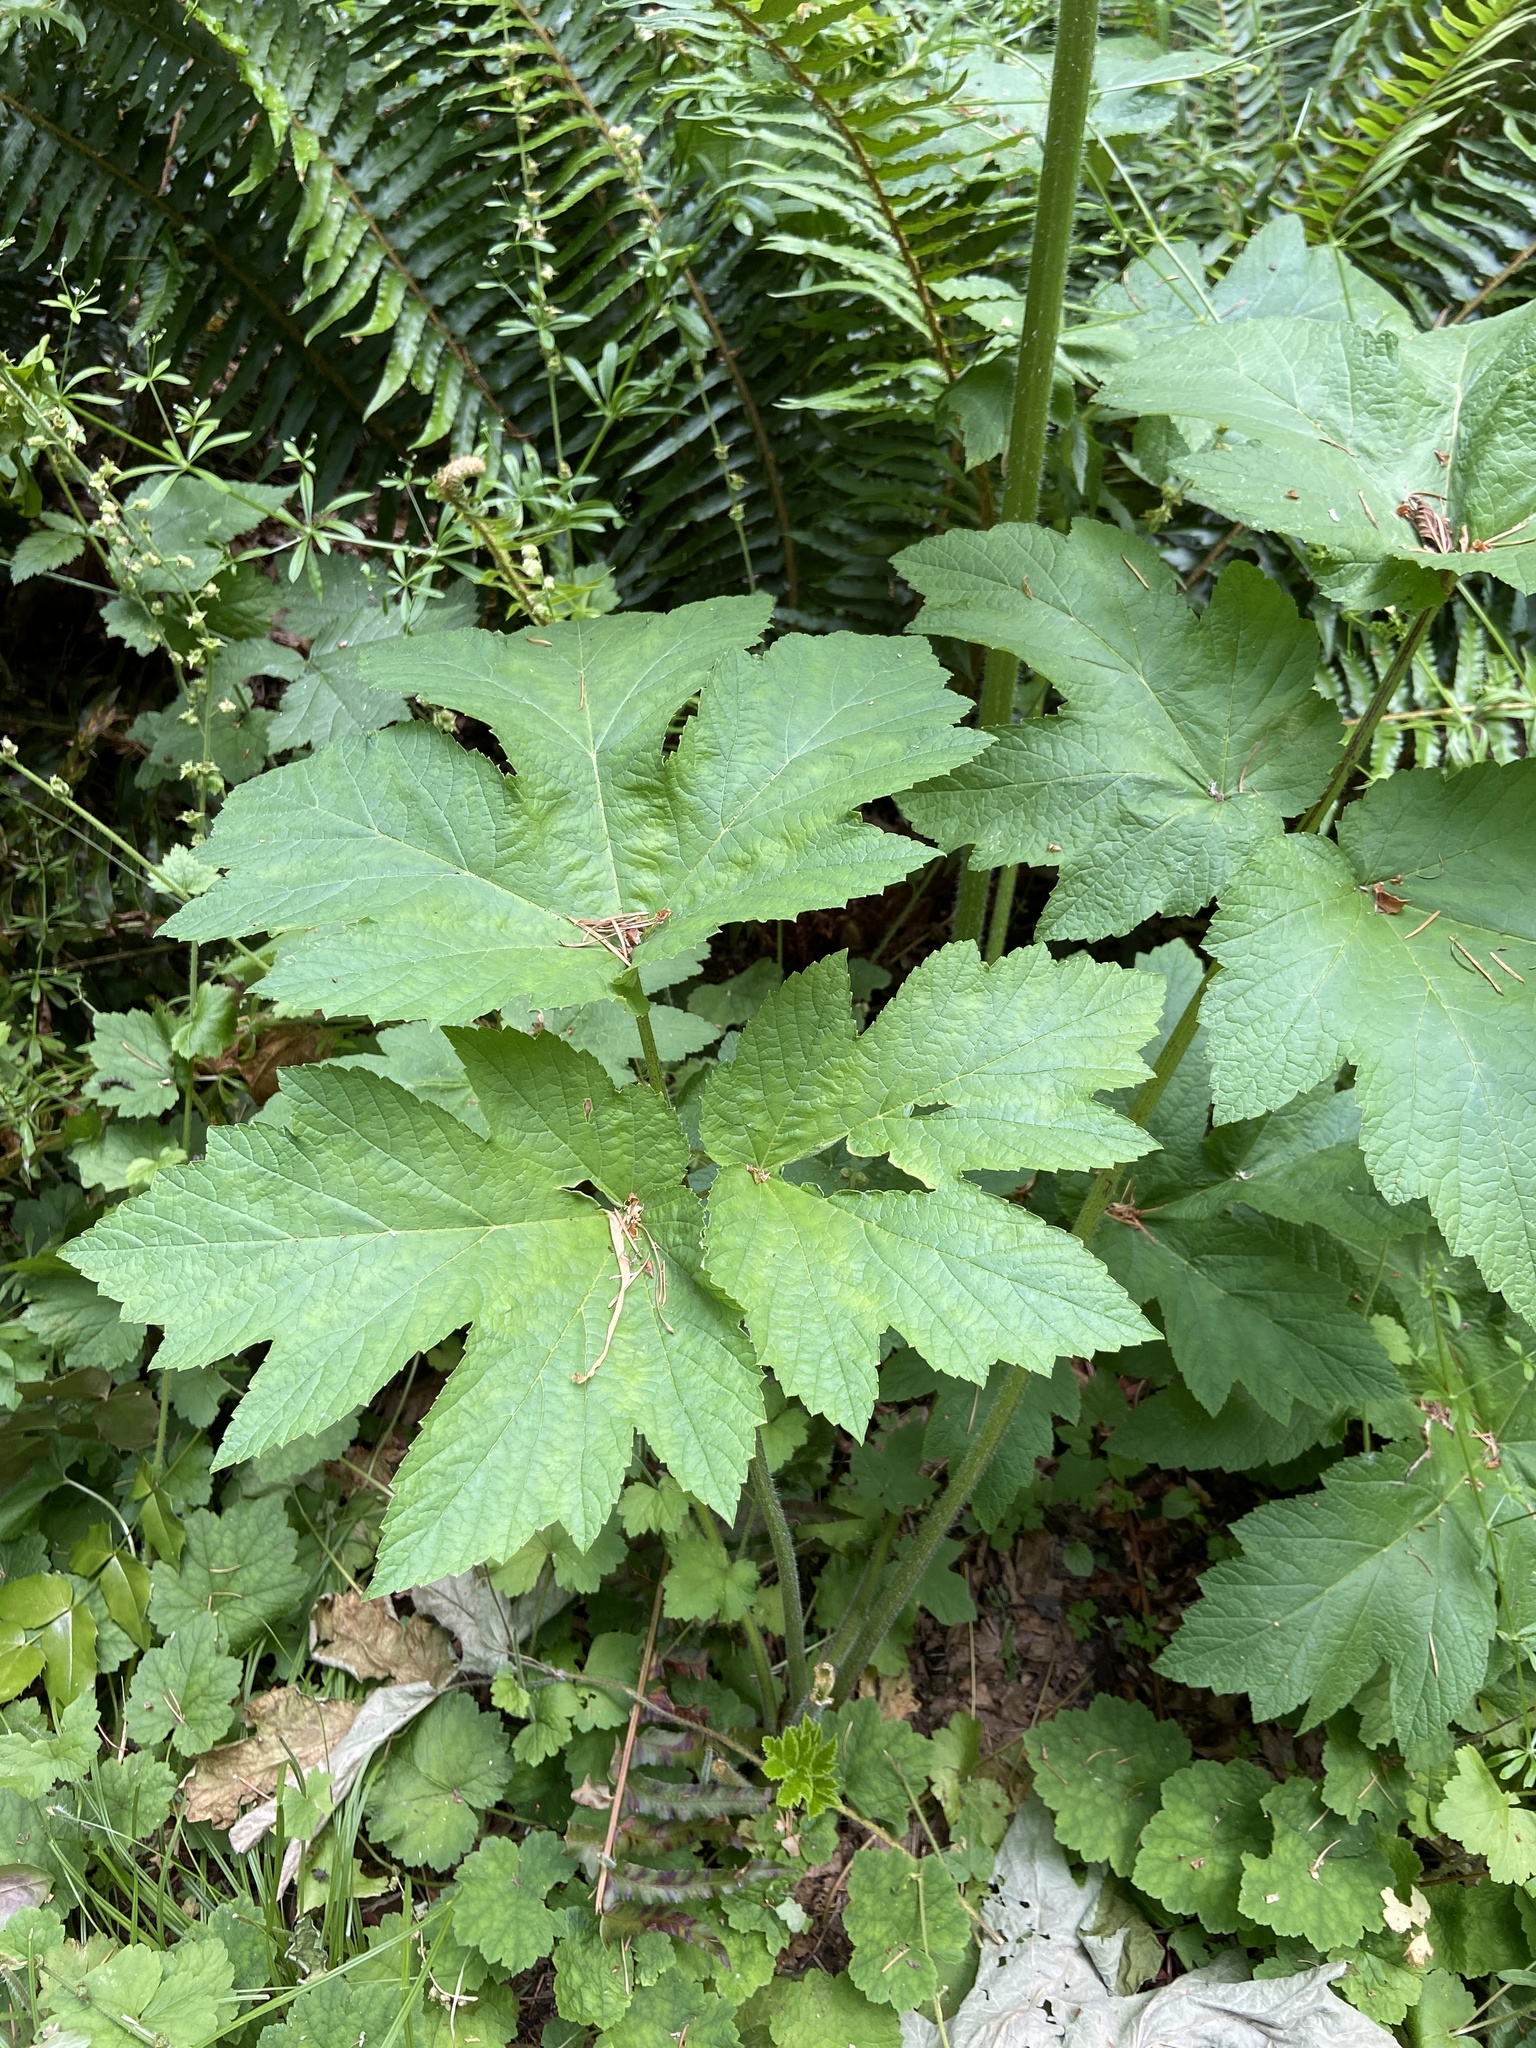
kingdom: Plantae
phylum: Tracheophyta
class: Magnoliopsida
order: Apiales
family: Apiaceae
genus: Heracleum
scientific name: Heracleum maximum
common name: American cow parsnip
